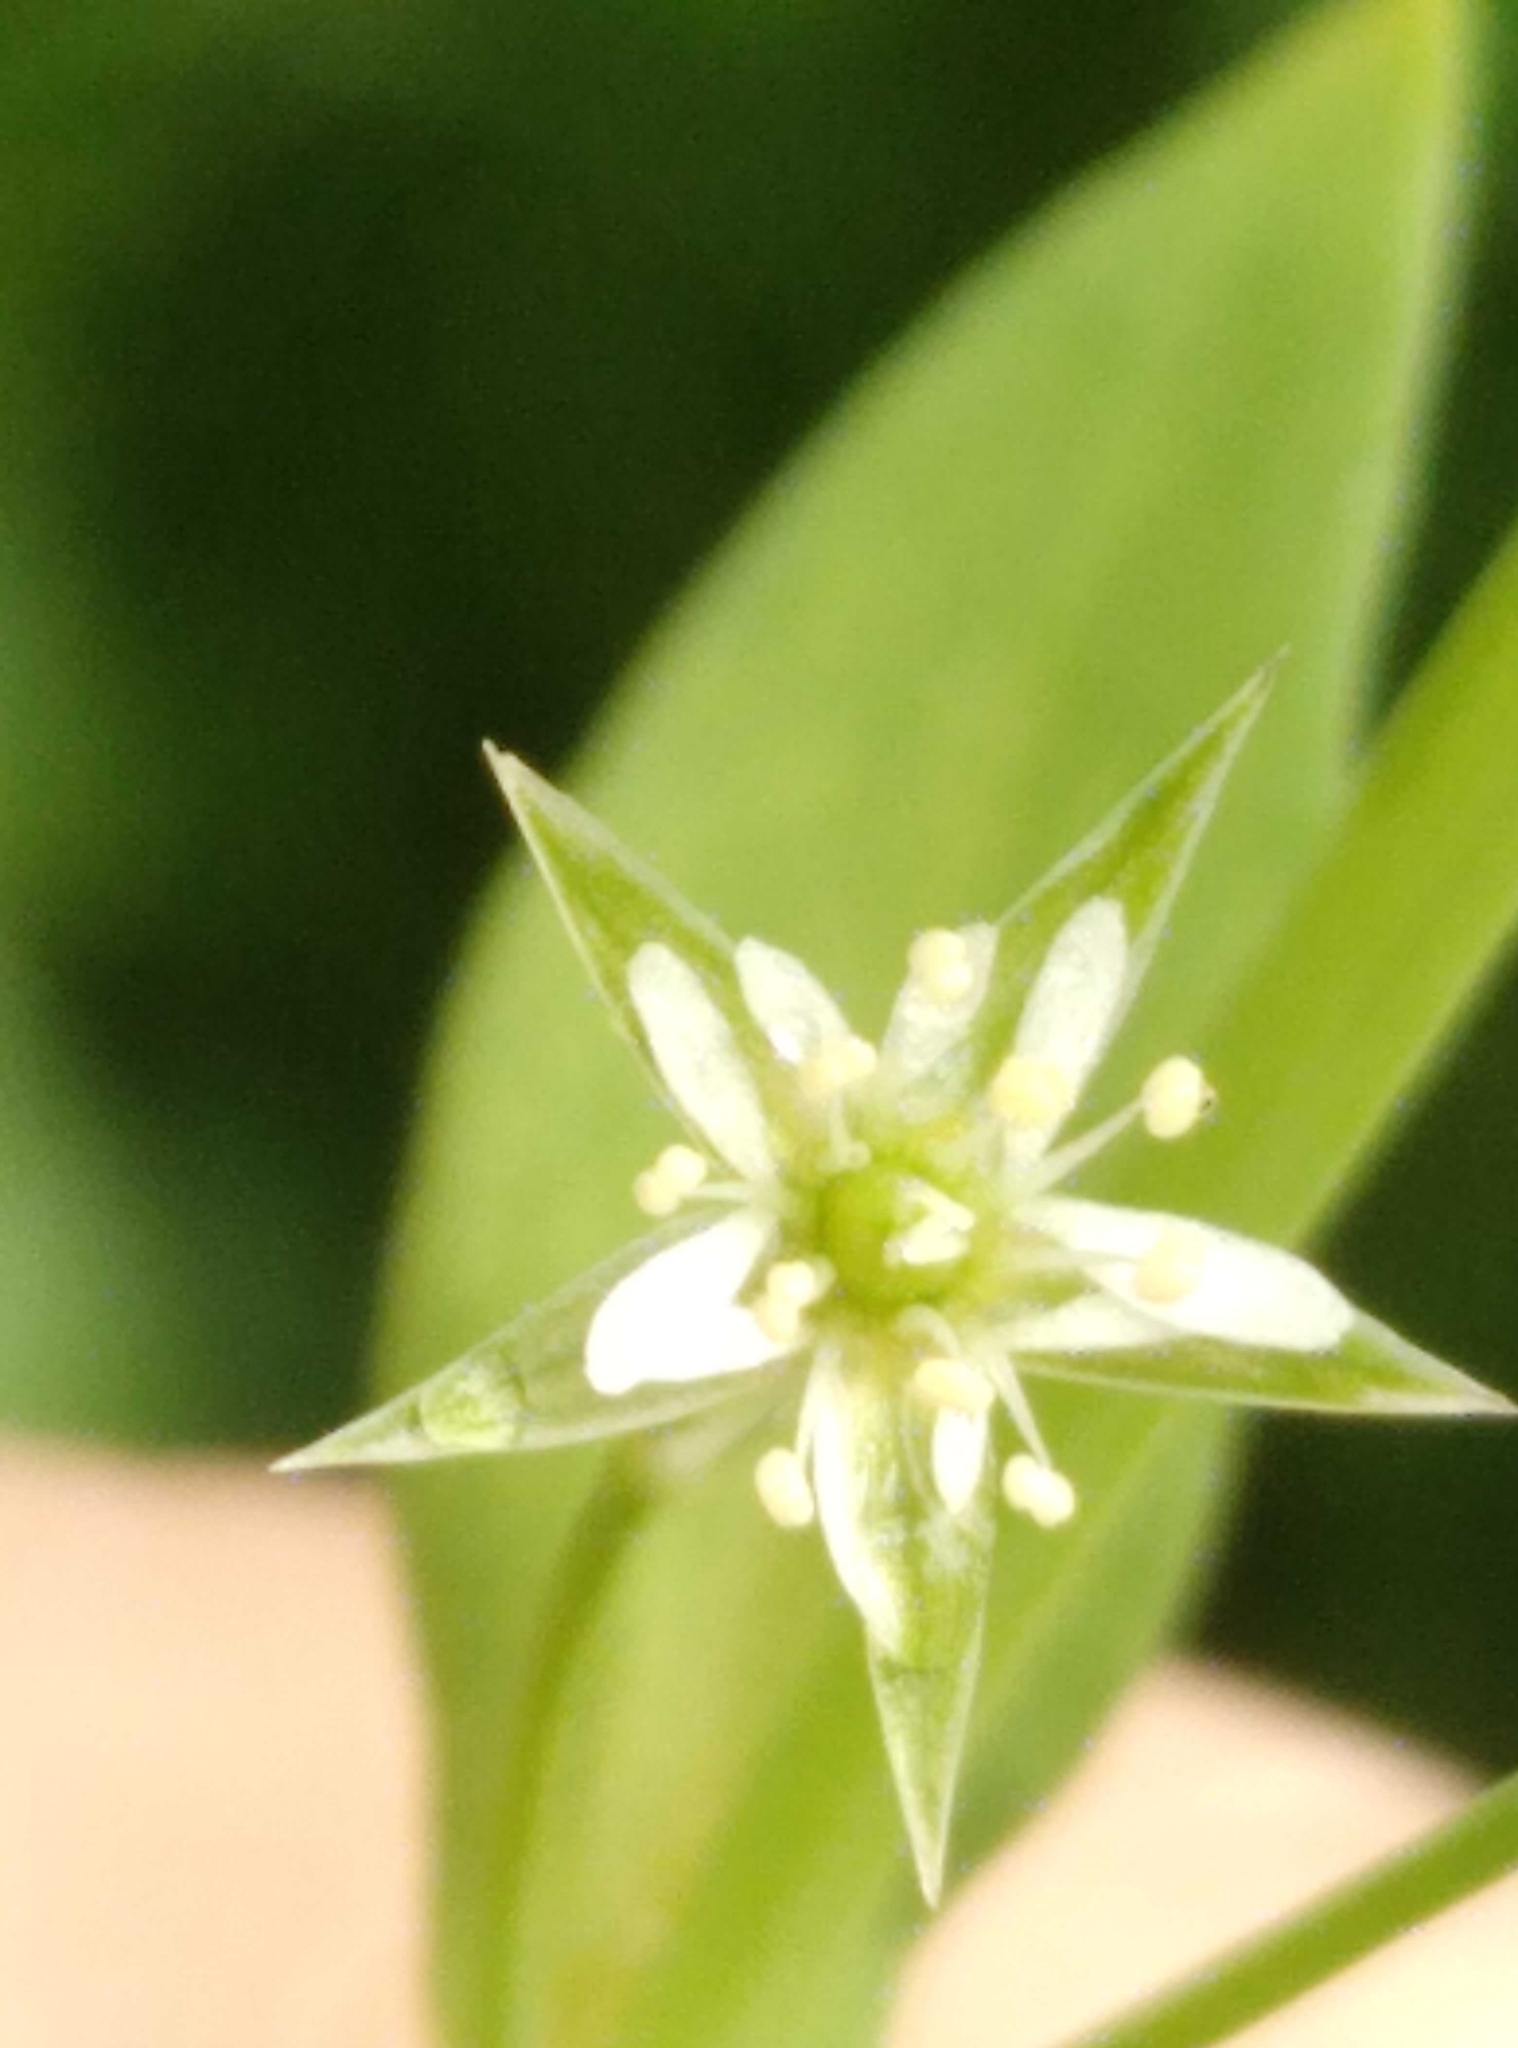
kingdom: Plantae
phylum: Tracheophyta
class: Magnoliopsida
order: Caryophyllales
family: Caryophyllaceae
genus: Stellaria
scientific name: Stellaria alsine
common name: Bog stitchwort
